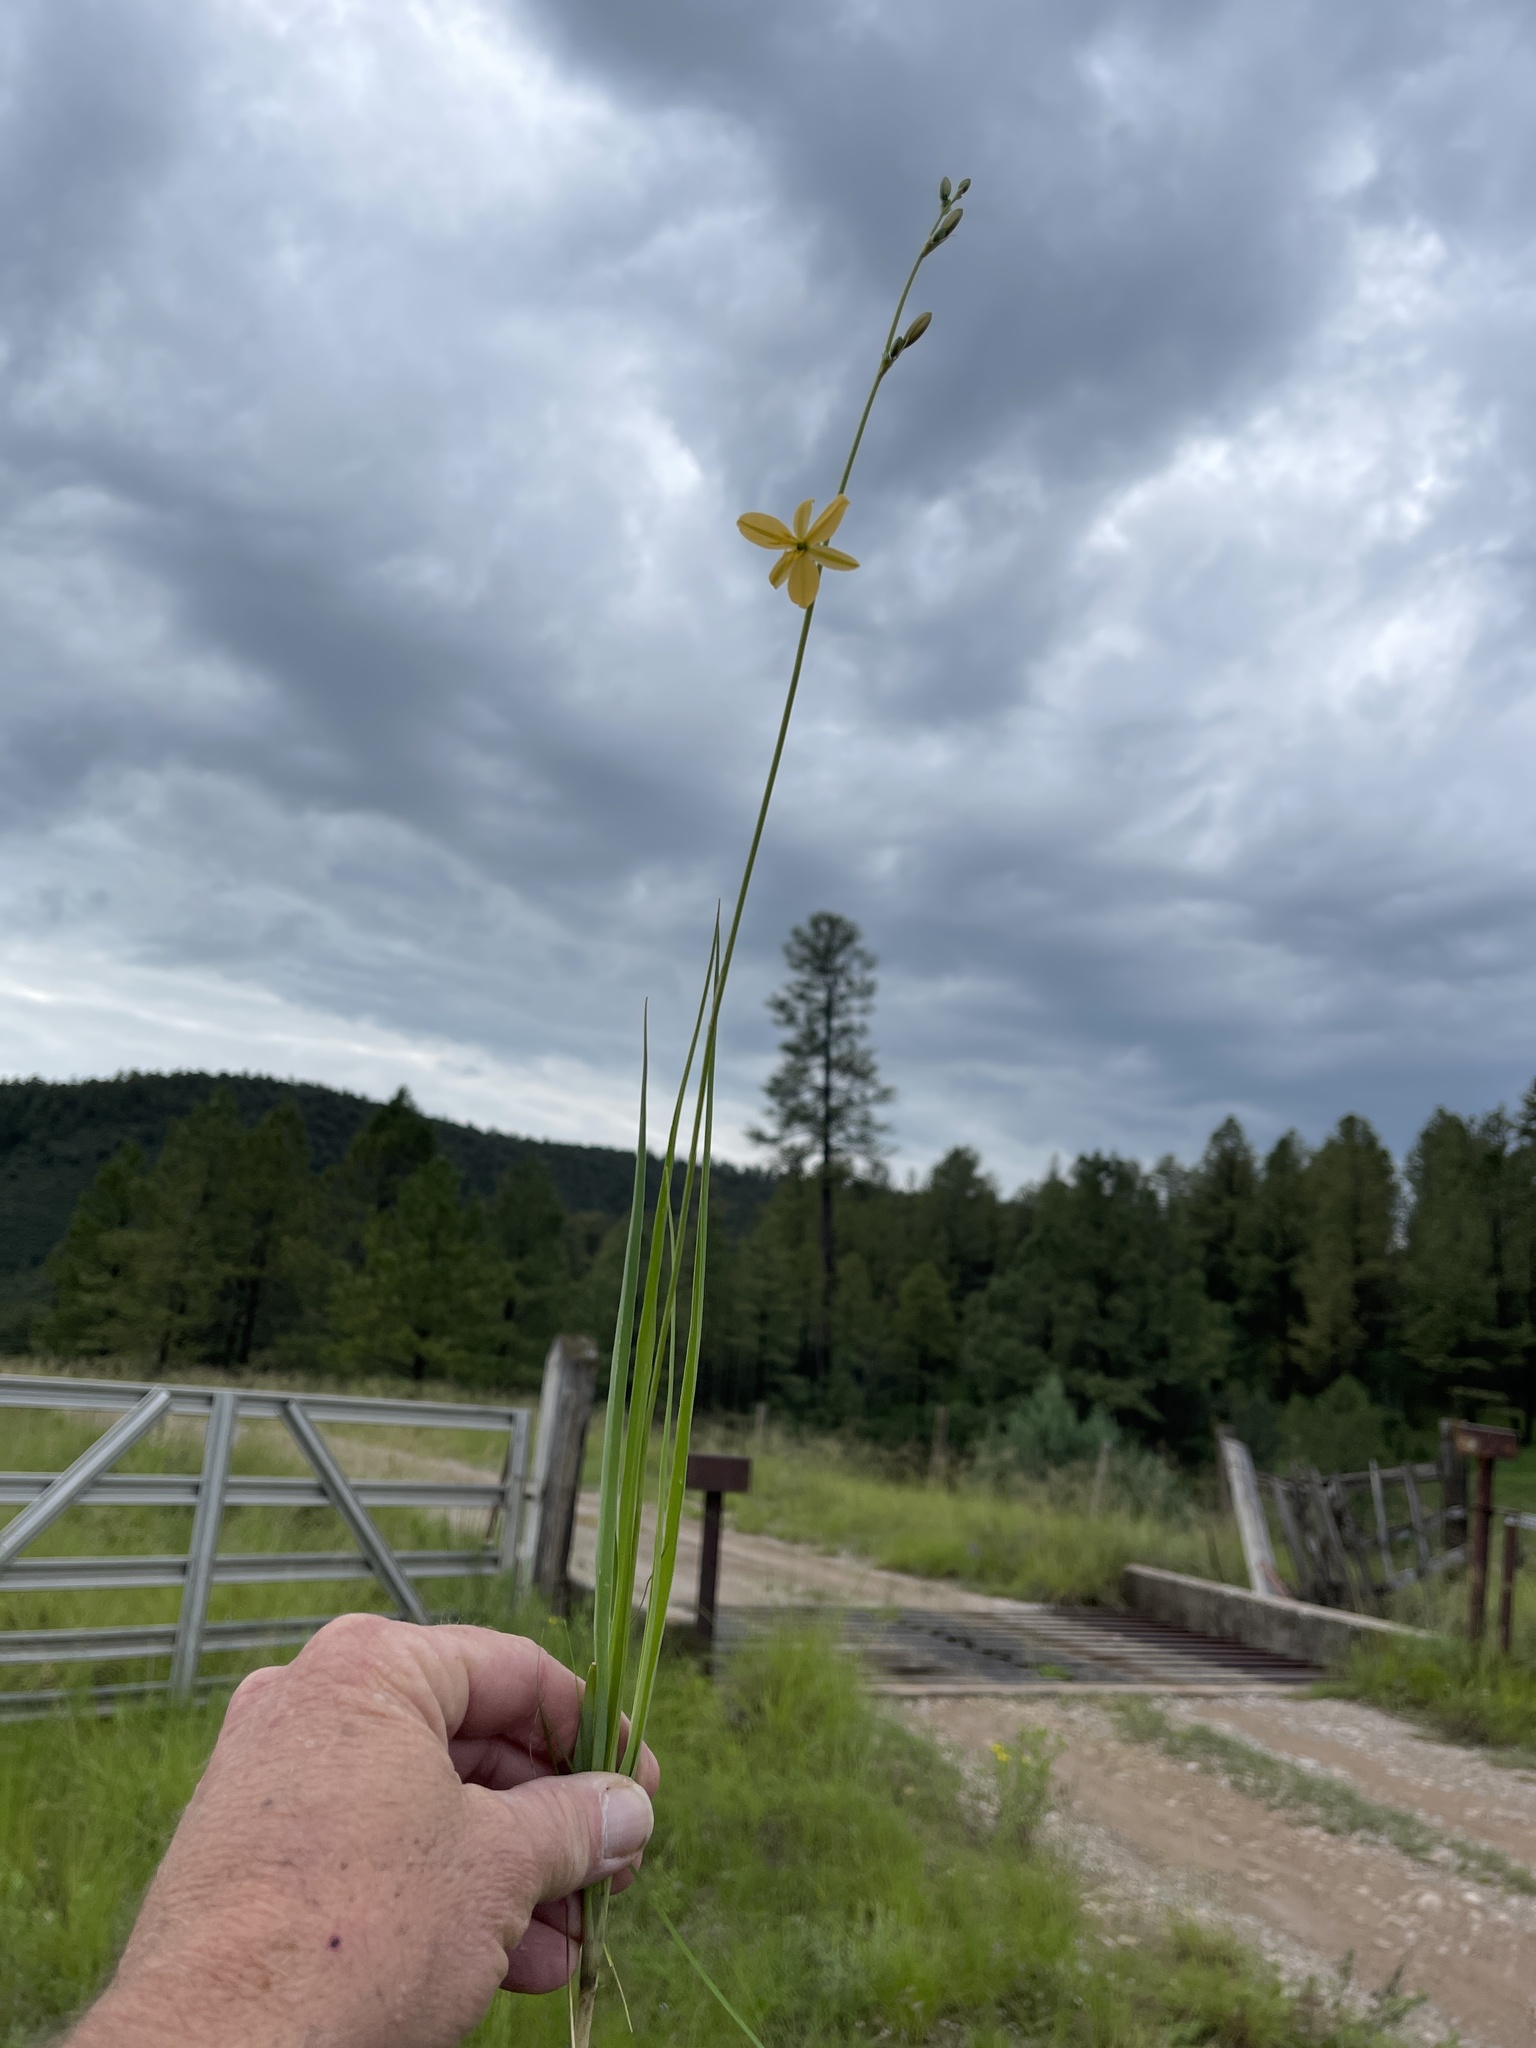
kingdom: Plantae
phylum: Tracheophyta
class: Liliopsida
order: Asparagales
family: Asparagaceae
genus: Echeandia
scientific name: Echeandia flavescens
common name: Amberlily
